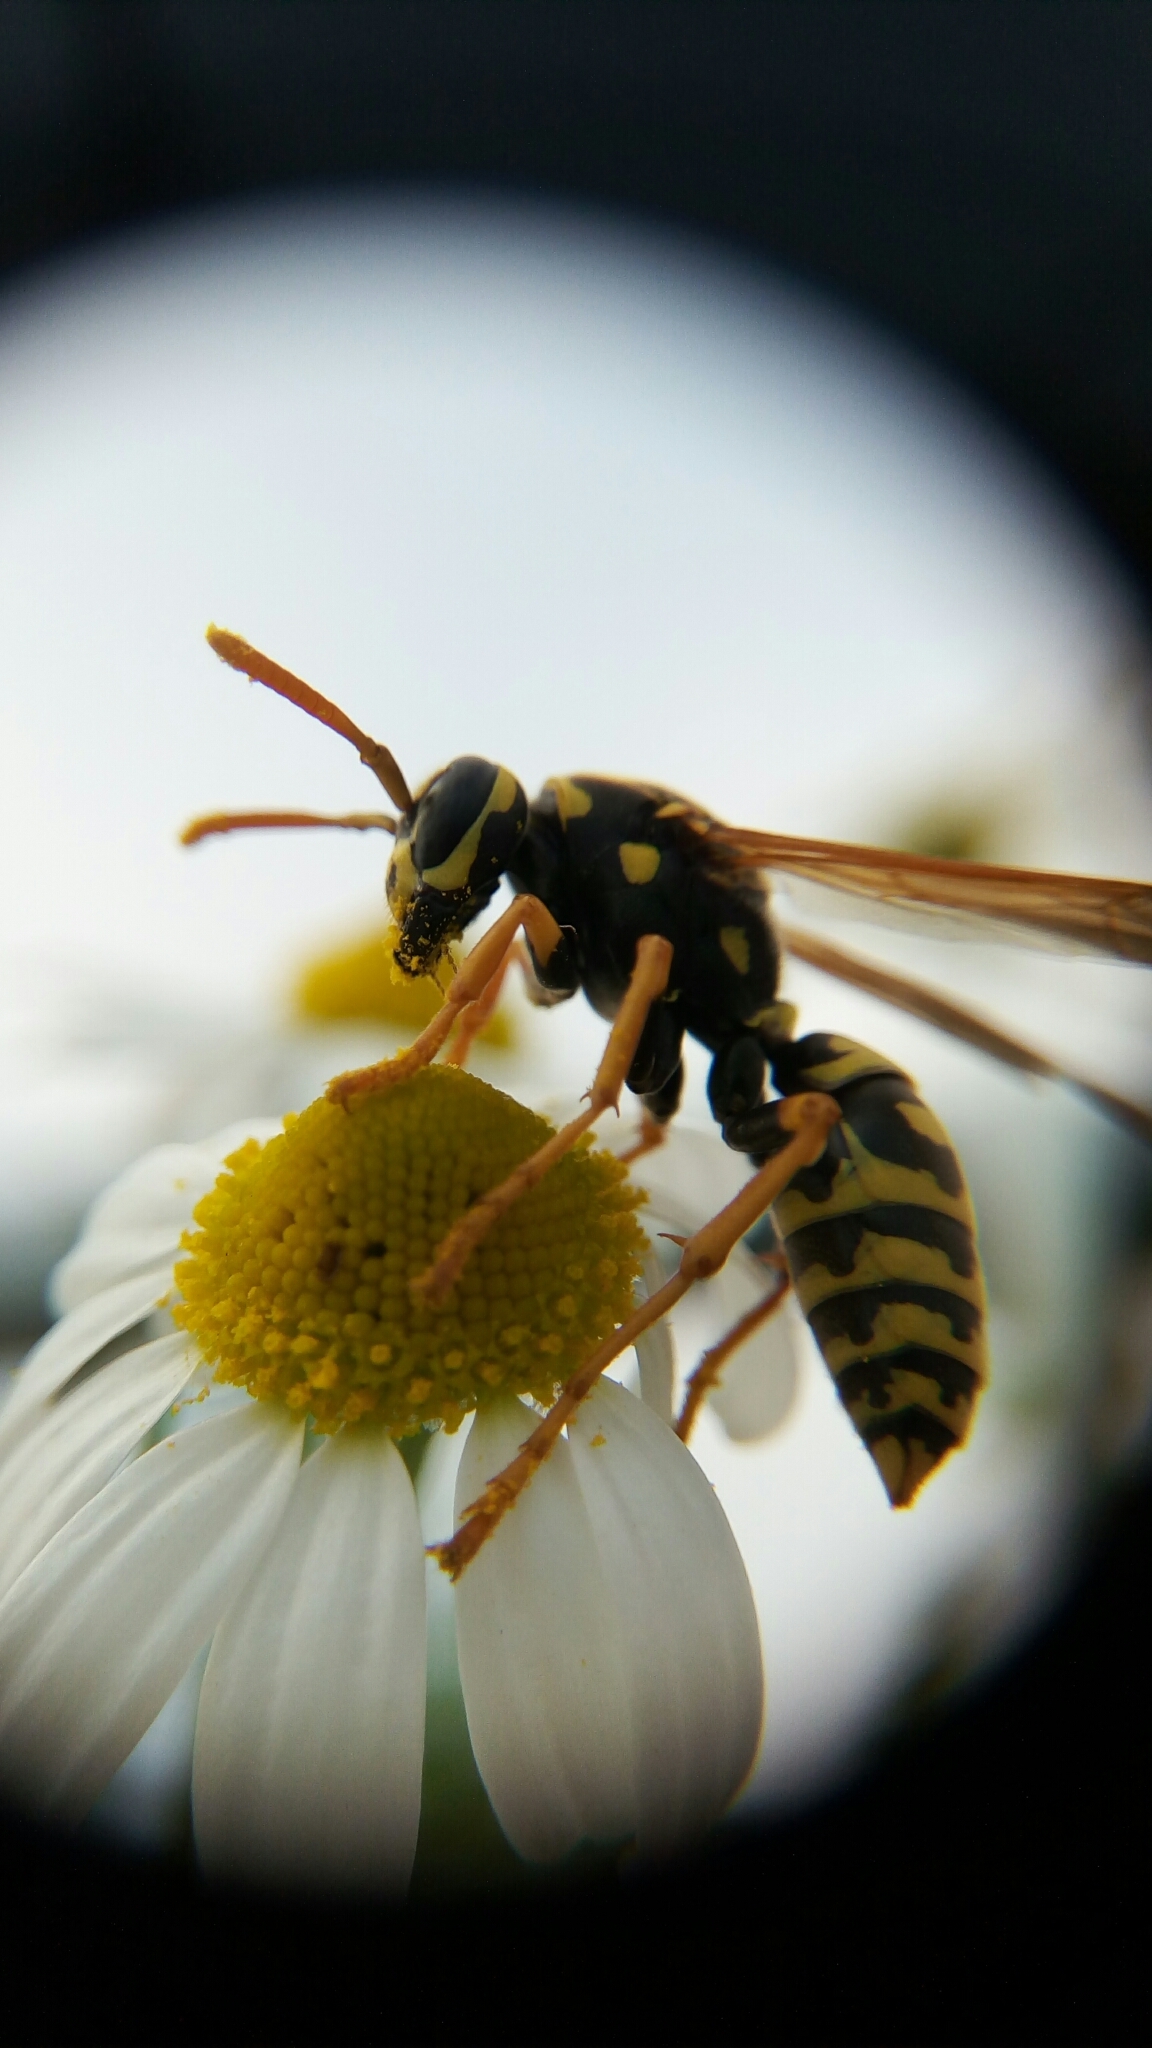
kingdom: Animalia
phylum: Arthropoda
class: Insecta
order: Hymenoptera
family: Eumenidae
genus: Polistes
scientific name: Polistes dominula
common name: Paper wasp
